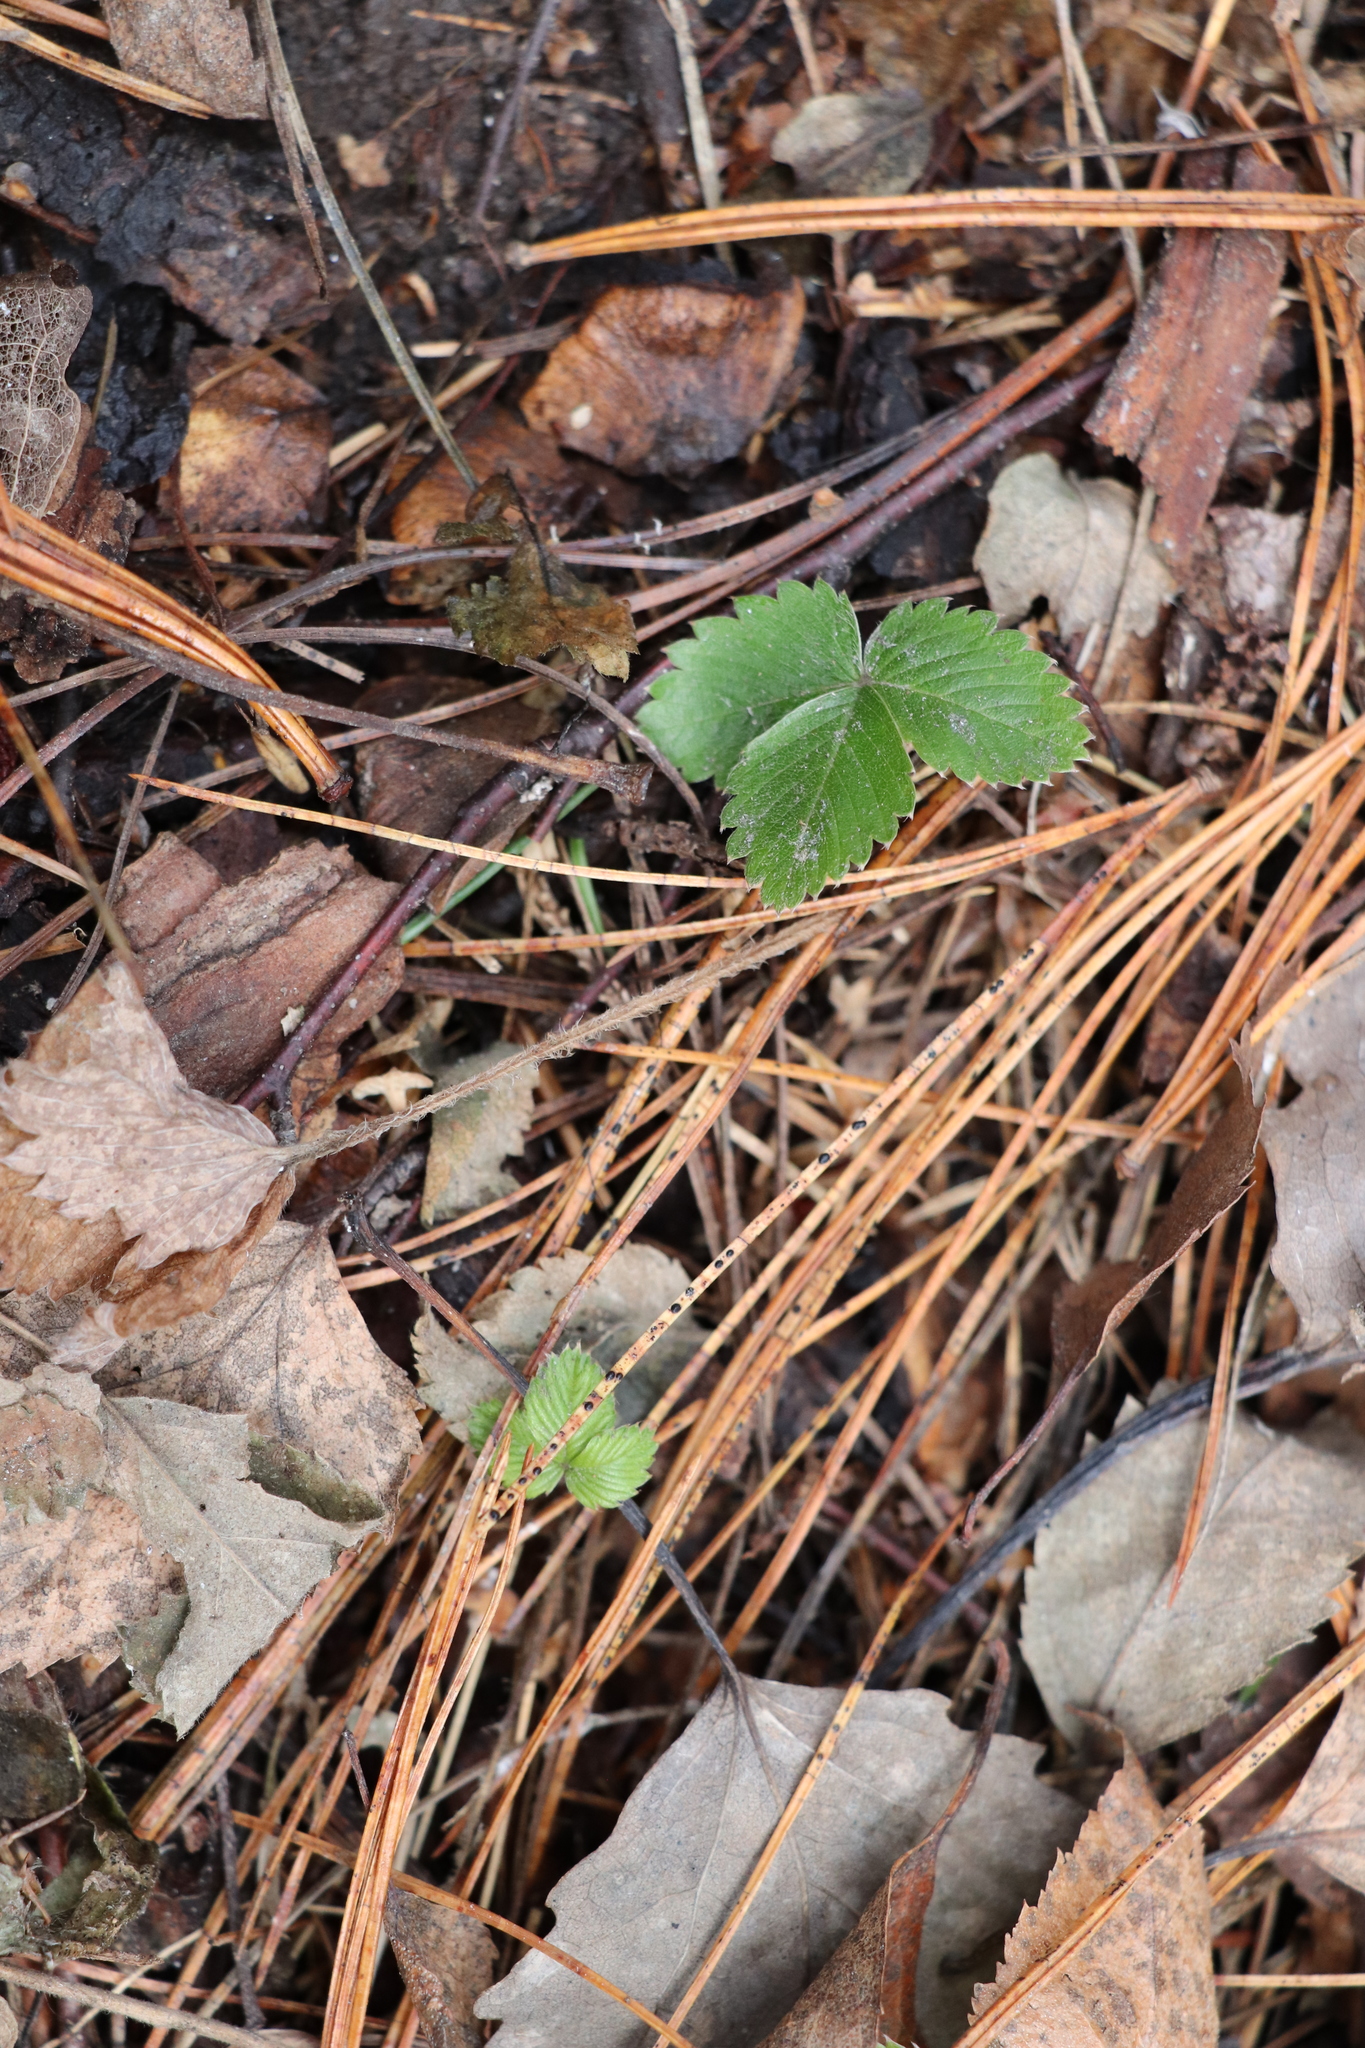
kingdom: Plantae
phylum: Tracheophyta
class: Magnoliopsida
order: Rosales
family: Rosaceae
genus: Fragaria
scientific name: Fragaria vesca
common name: Wild strawberry
